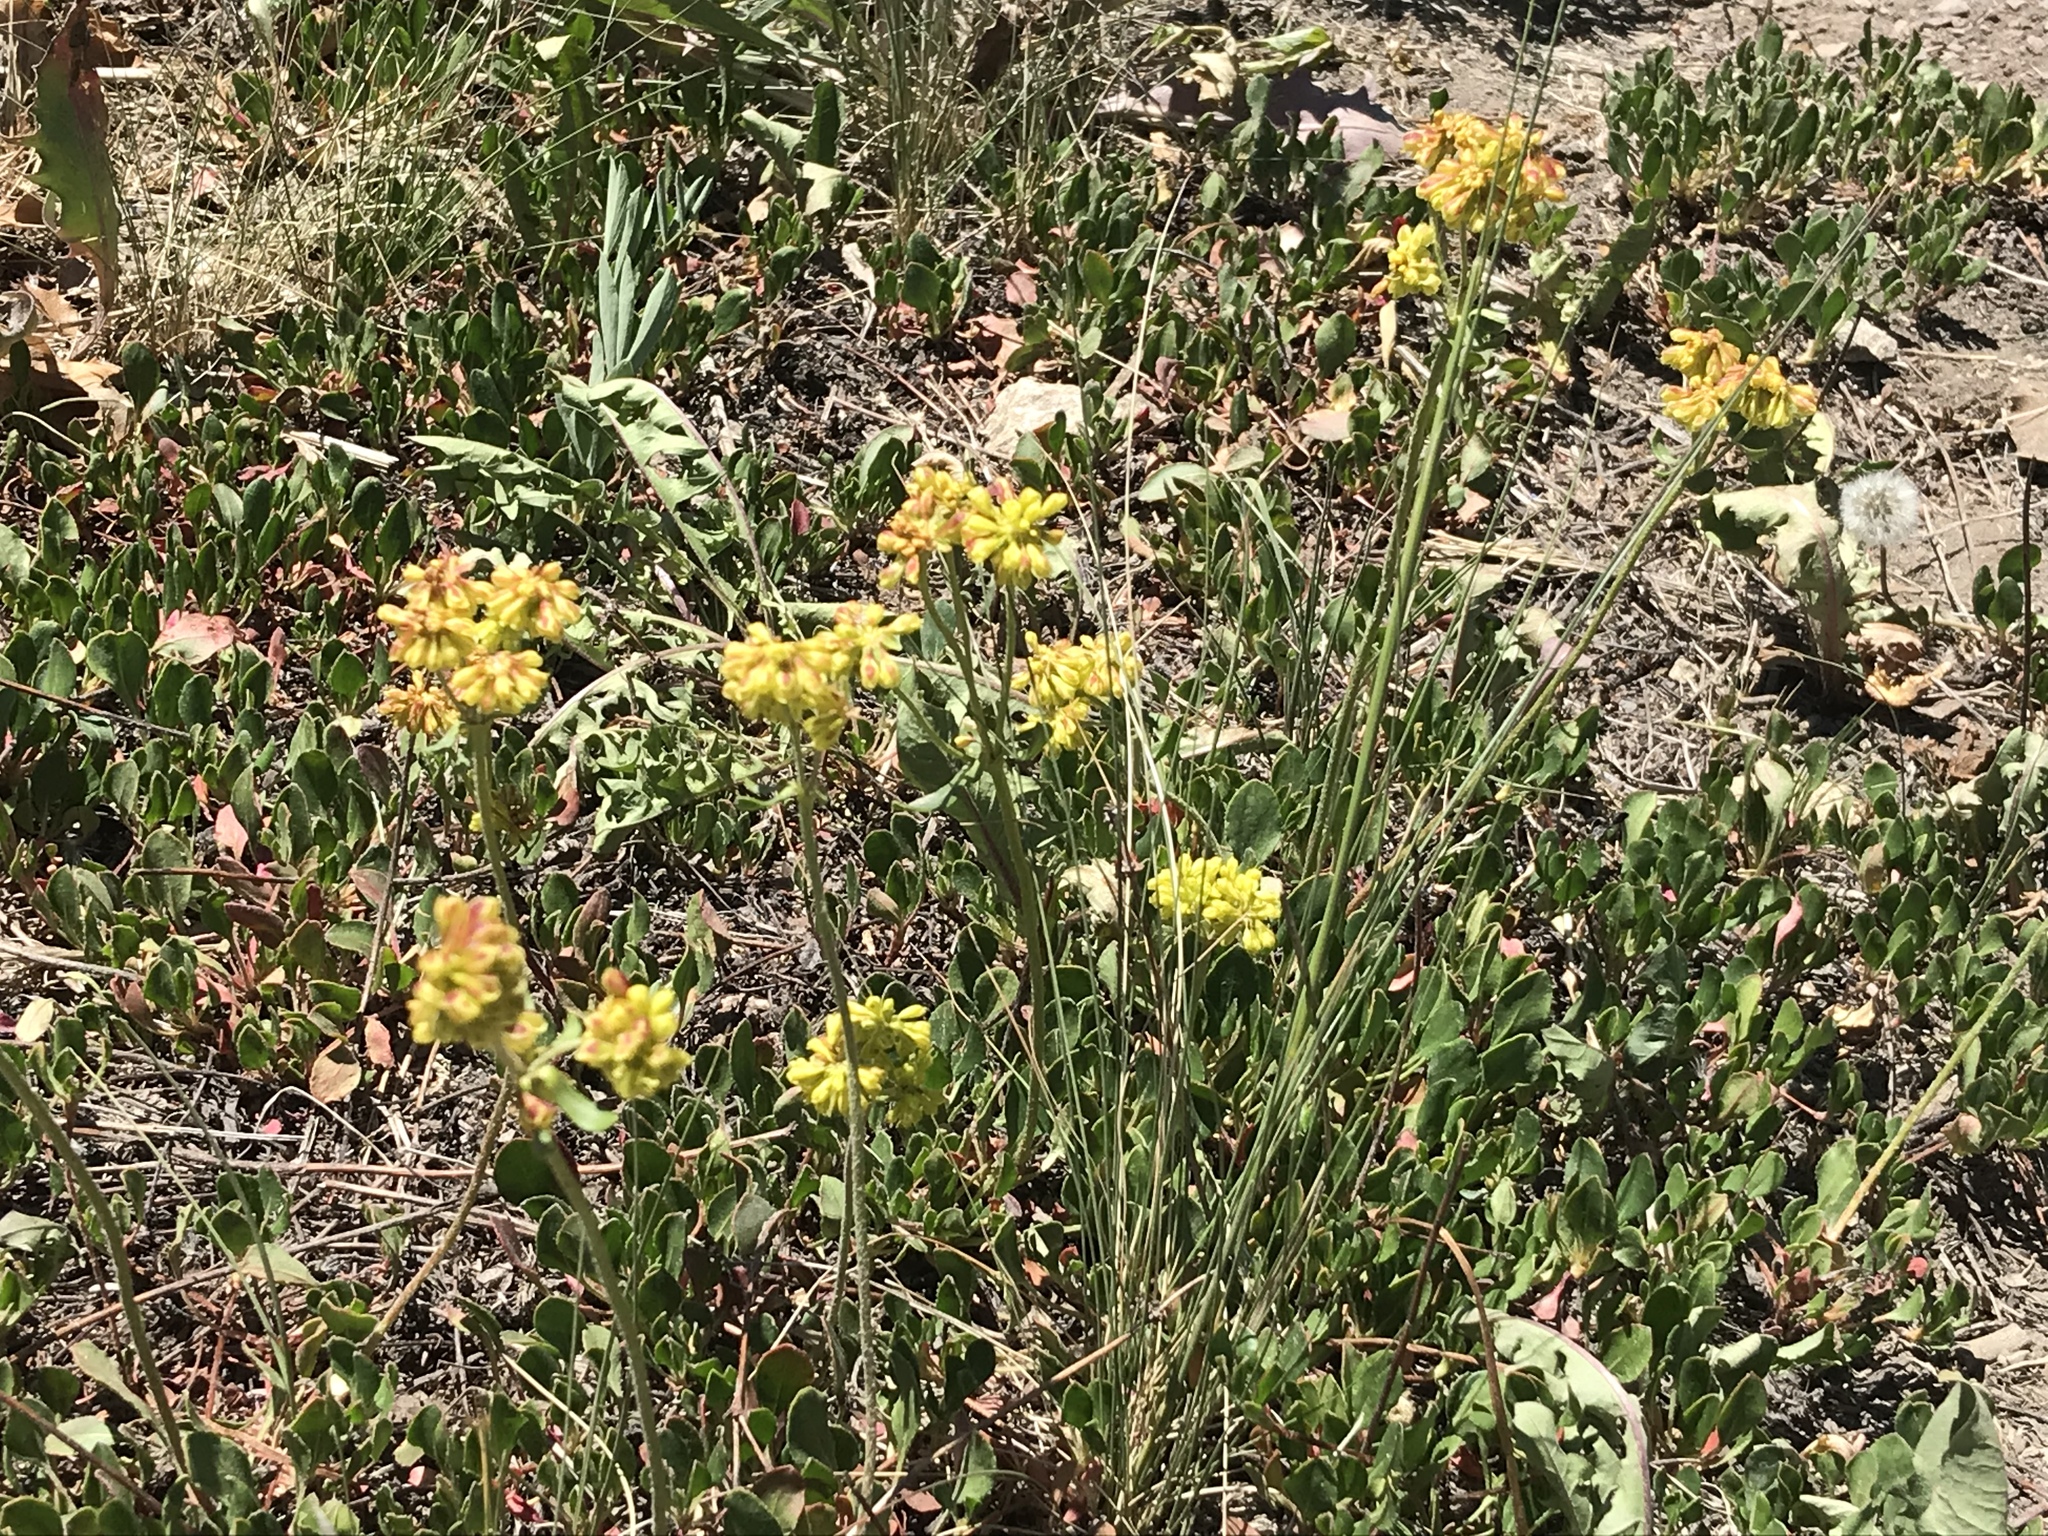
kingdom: Plantae
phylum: Tracheophyta
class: Magnoliopsida
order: Caryophyllales
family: Polygonaceae
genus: Eriogonum
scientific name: Eriogonum umbellatum
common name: Sulfur-buckwheat
